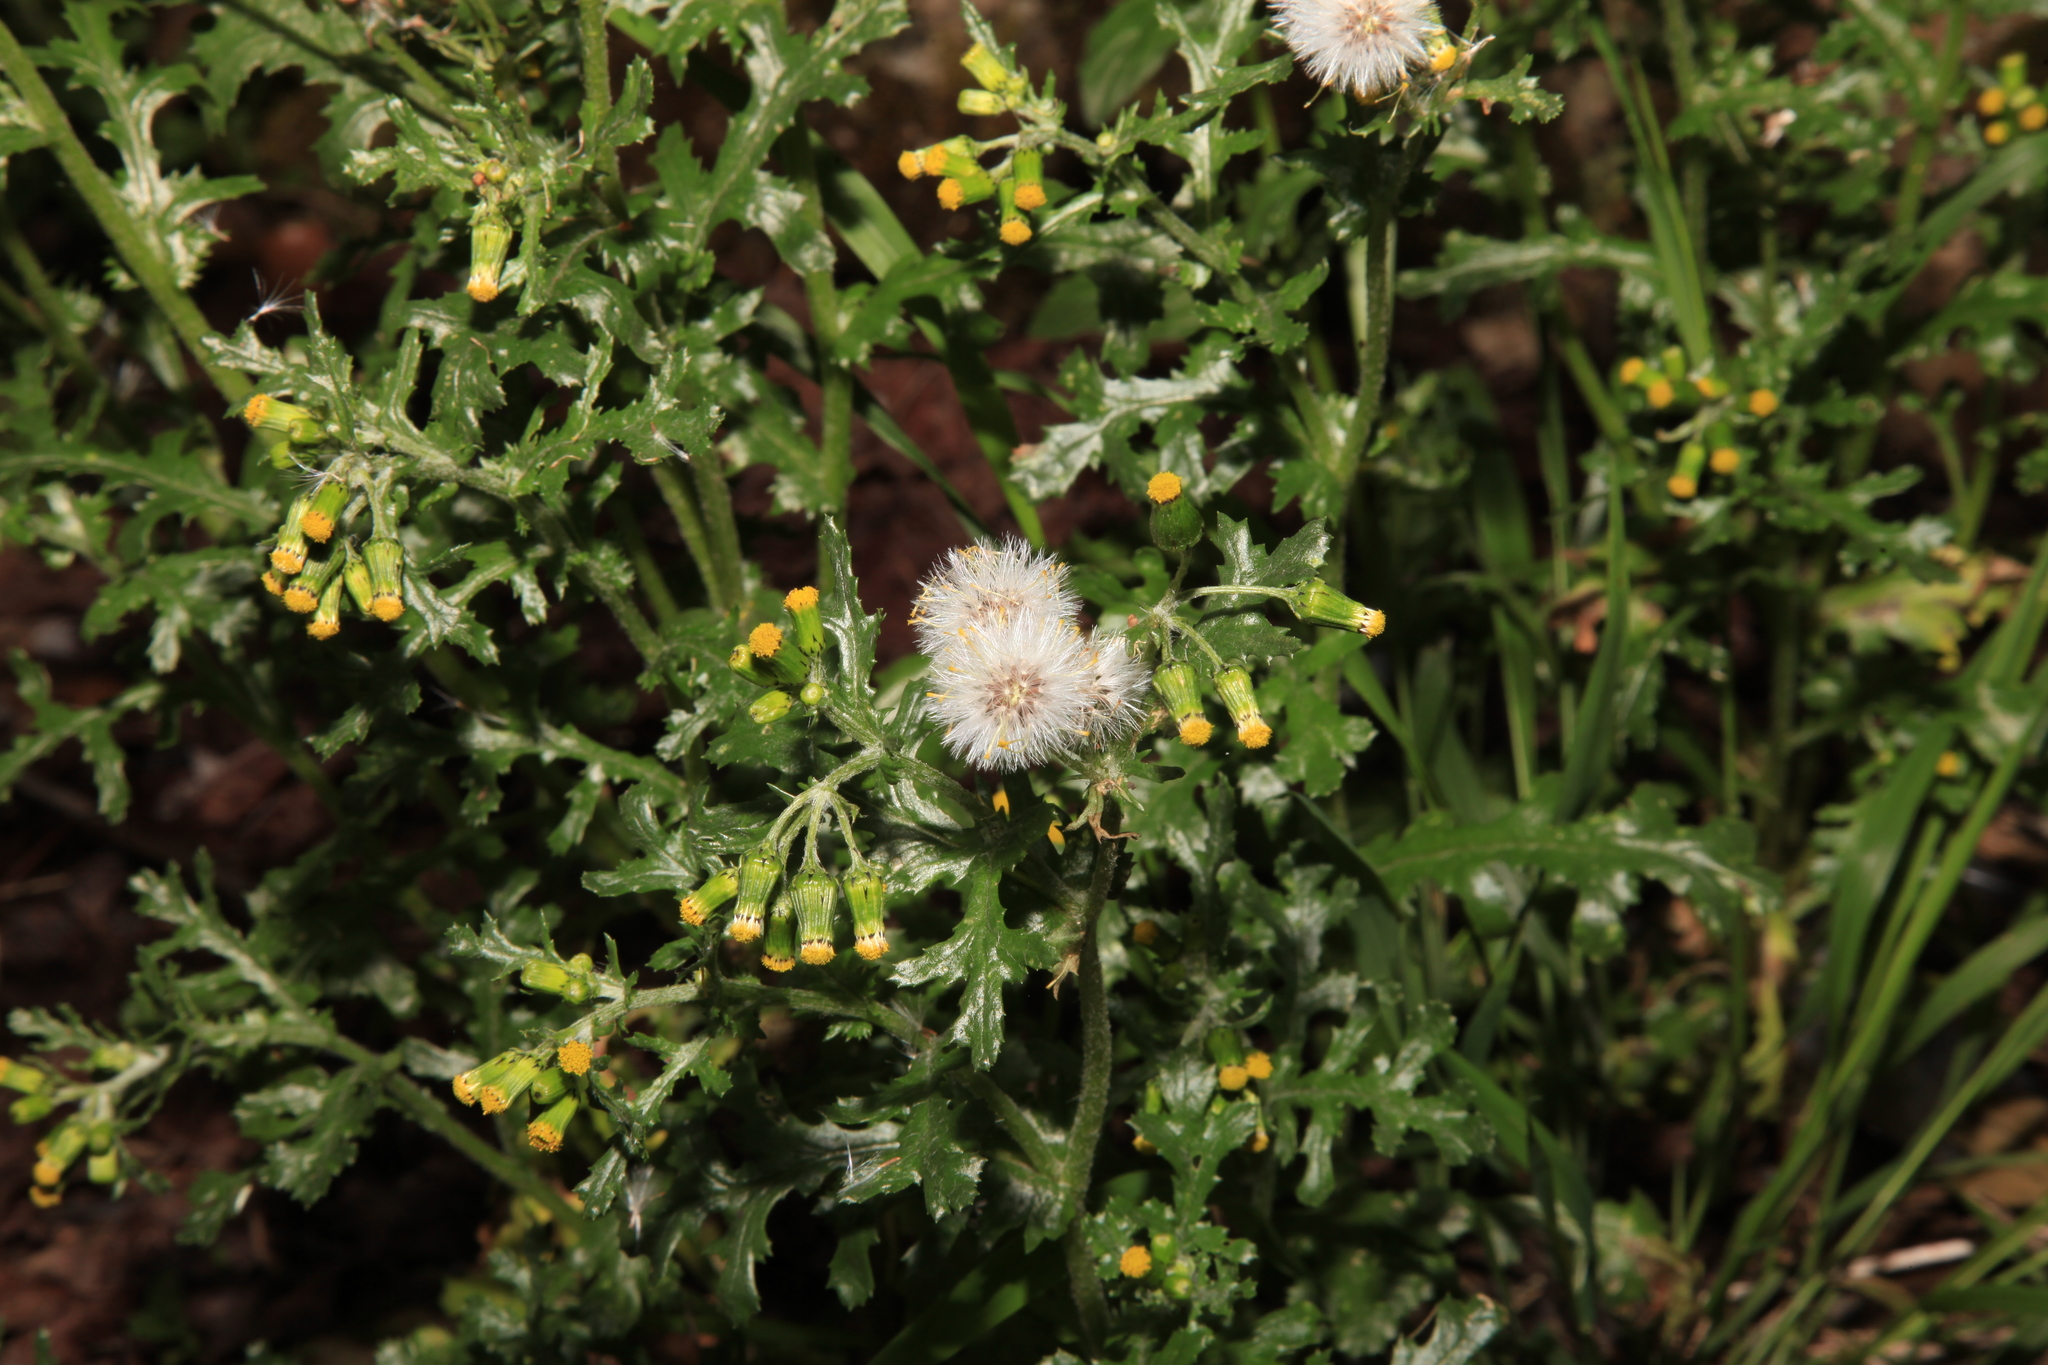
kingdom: Plantae
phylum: Tracheophyta
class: Magnoliopsida
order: Asterales
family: Asteraceae
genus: Senecio
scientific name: Senecio vulgaris
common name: Old-man-in-the-spring
